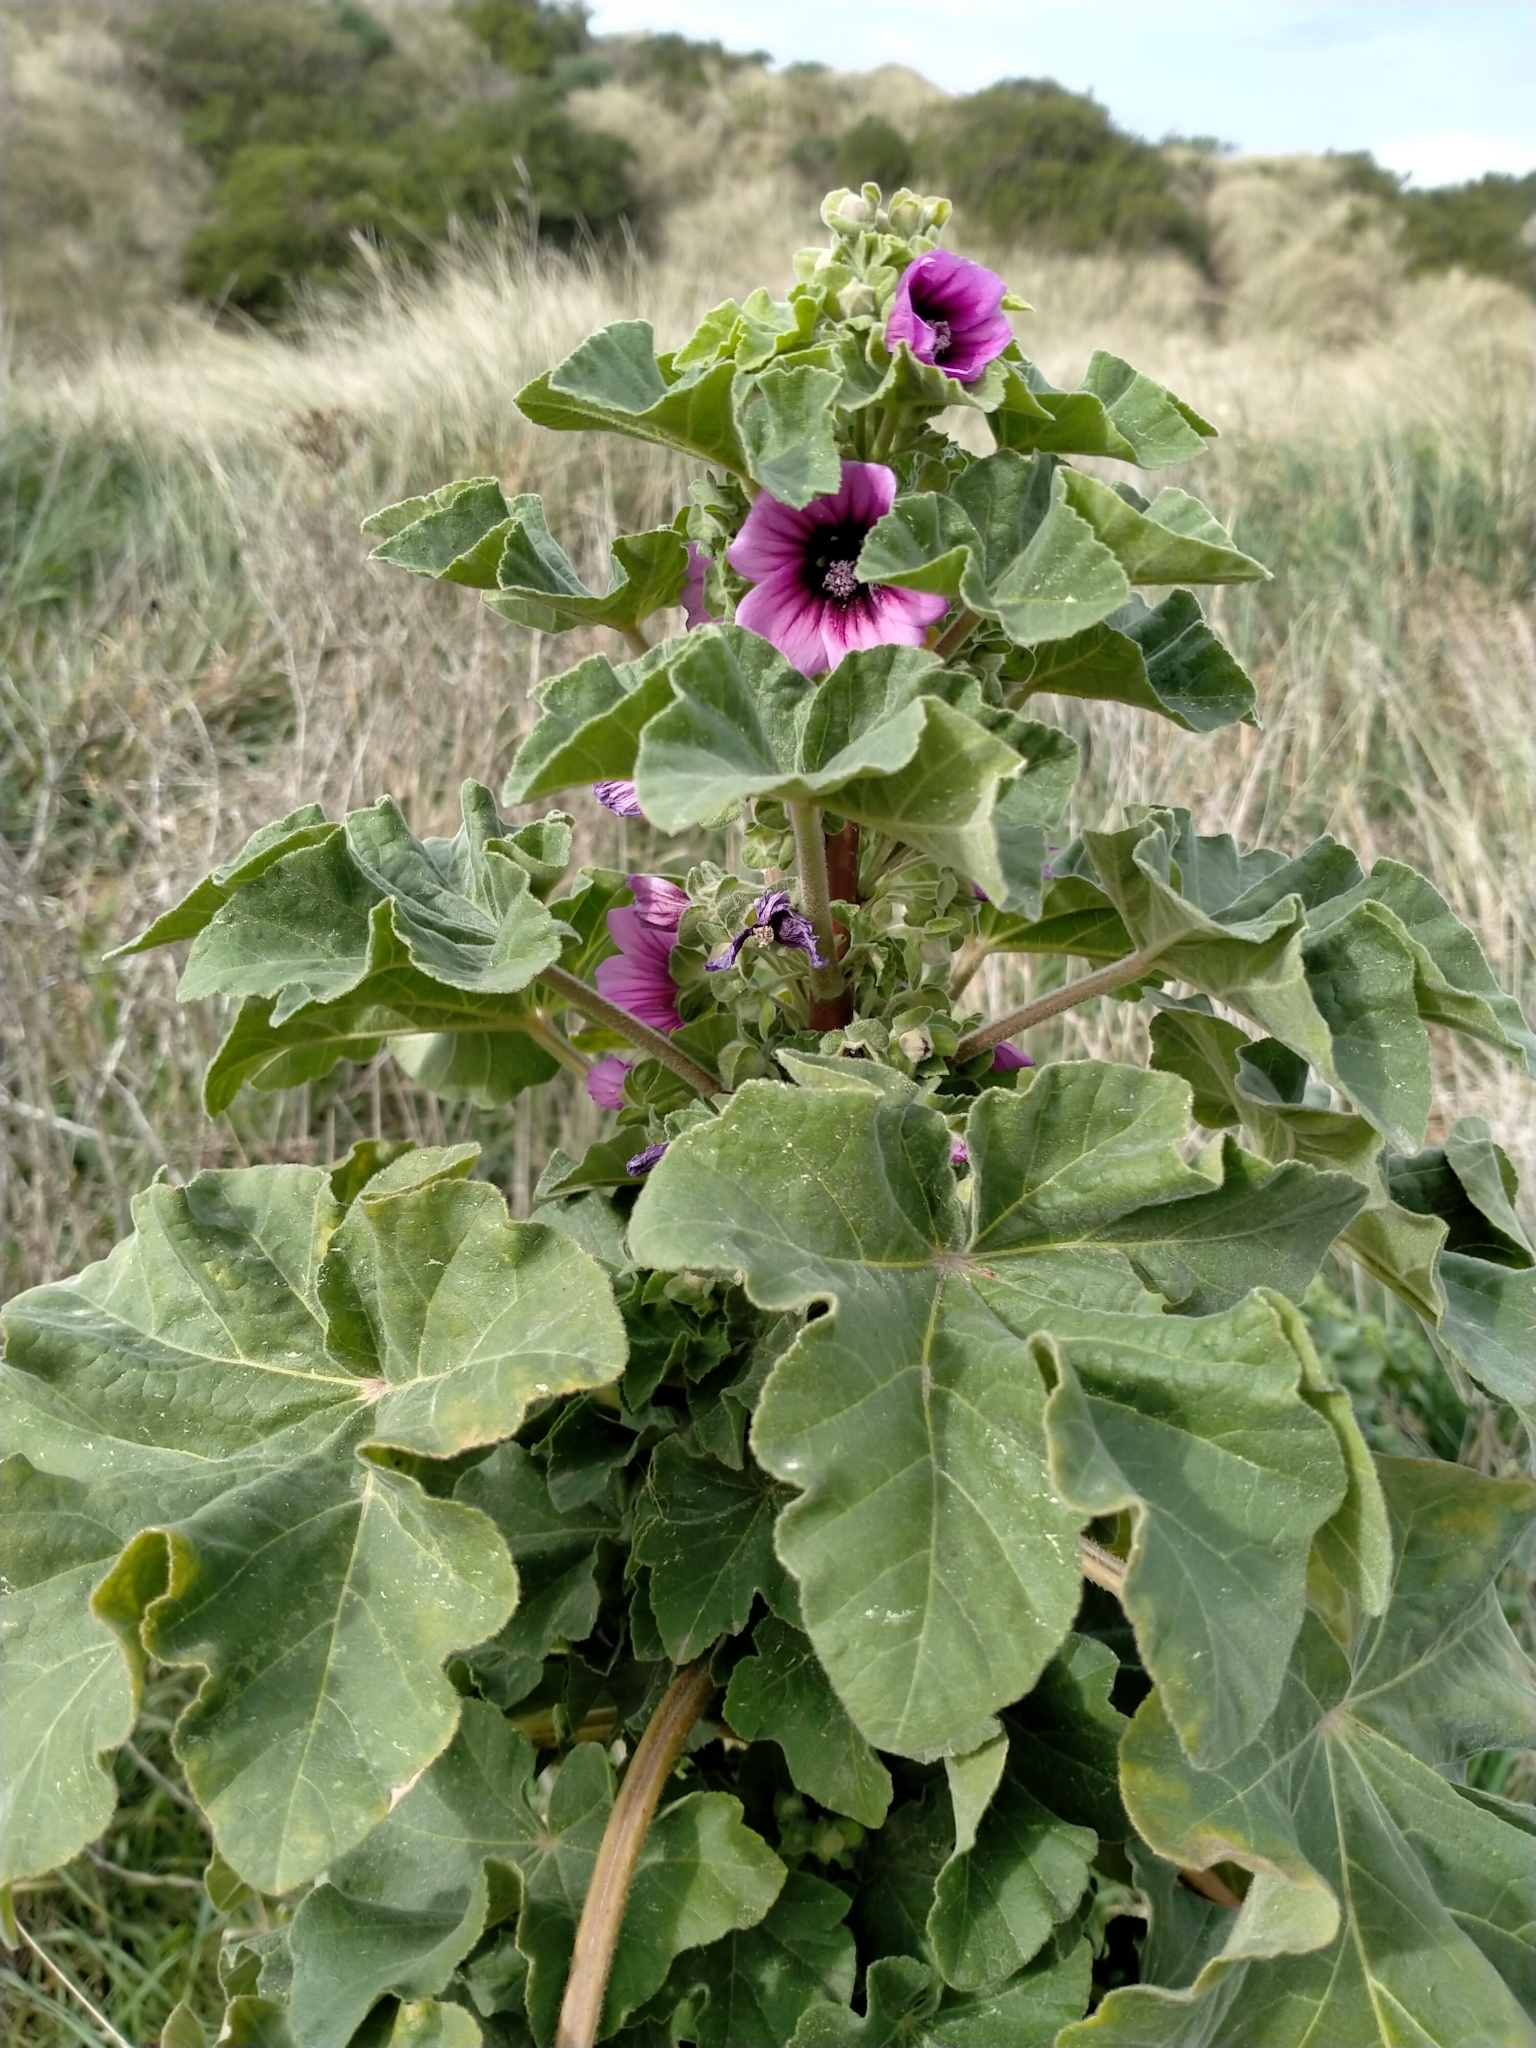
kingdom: Plantae
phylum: Tracheophyta
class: Magnoliopsida
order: Malvales
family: Malvaceae
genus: Malva
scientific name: Malva arborea
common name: Tree mallow
